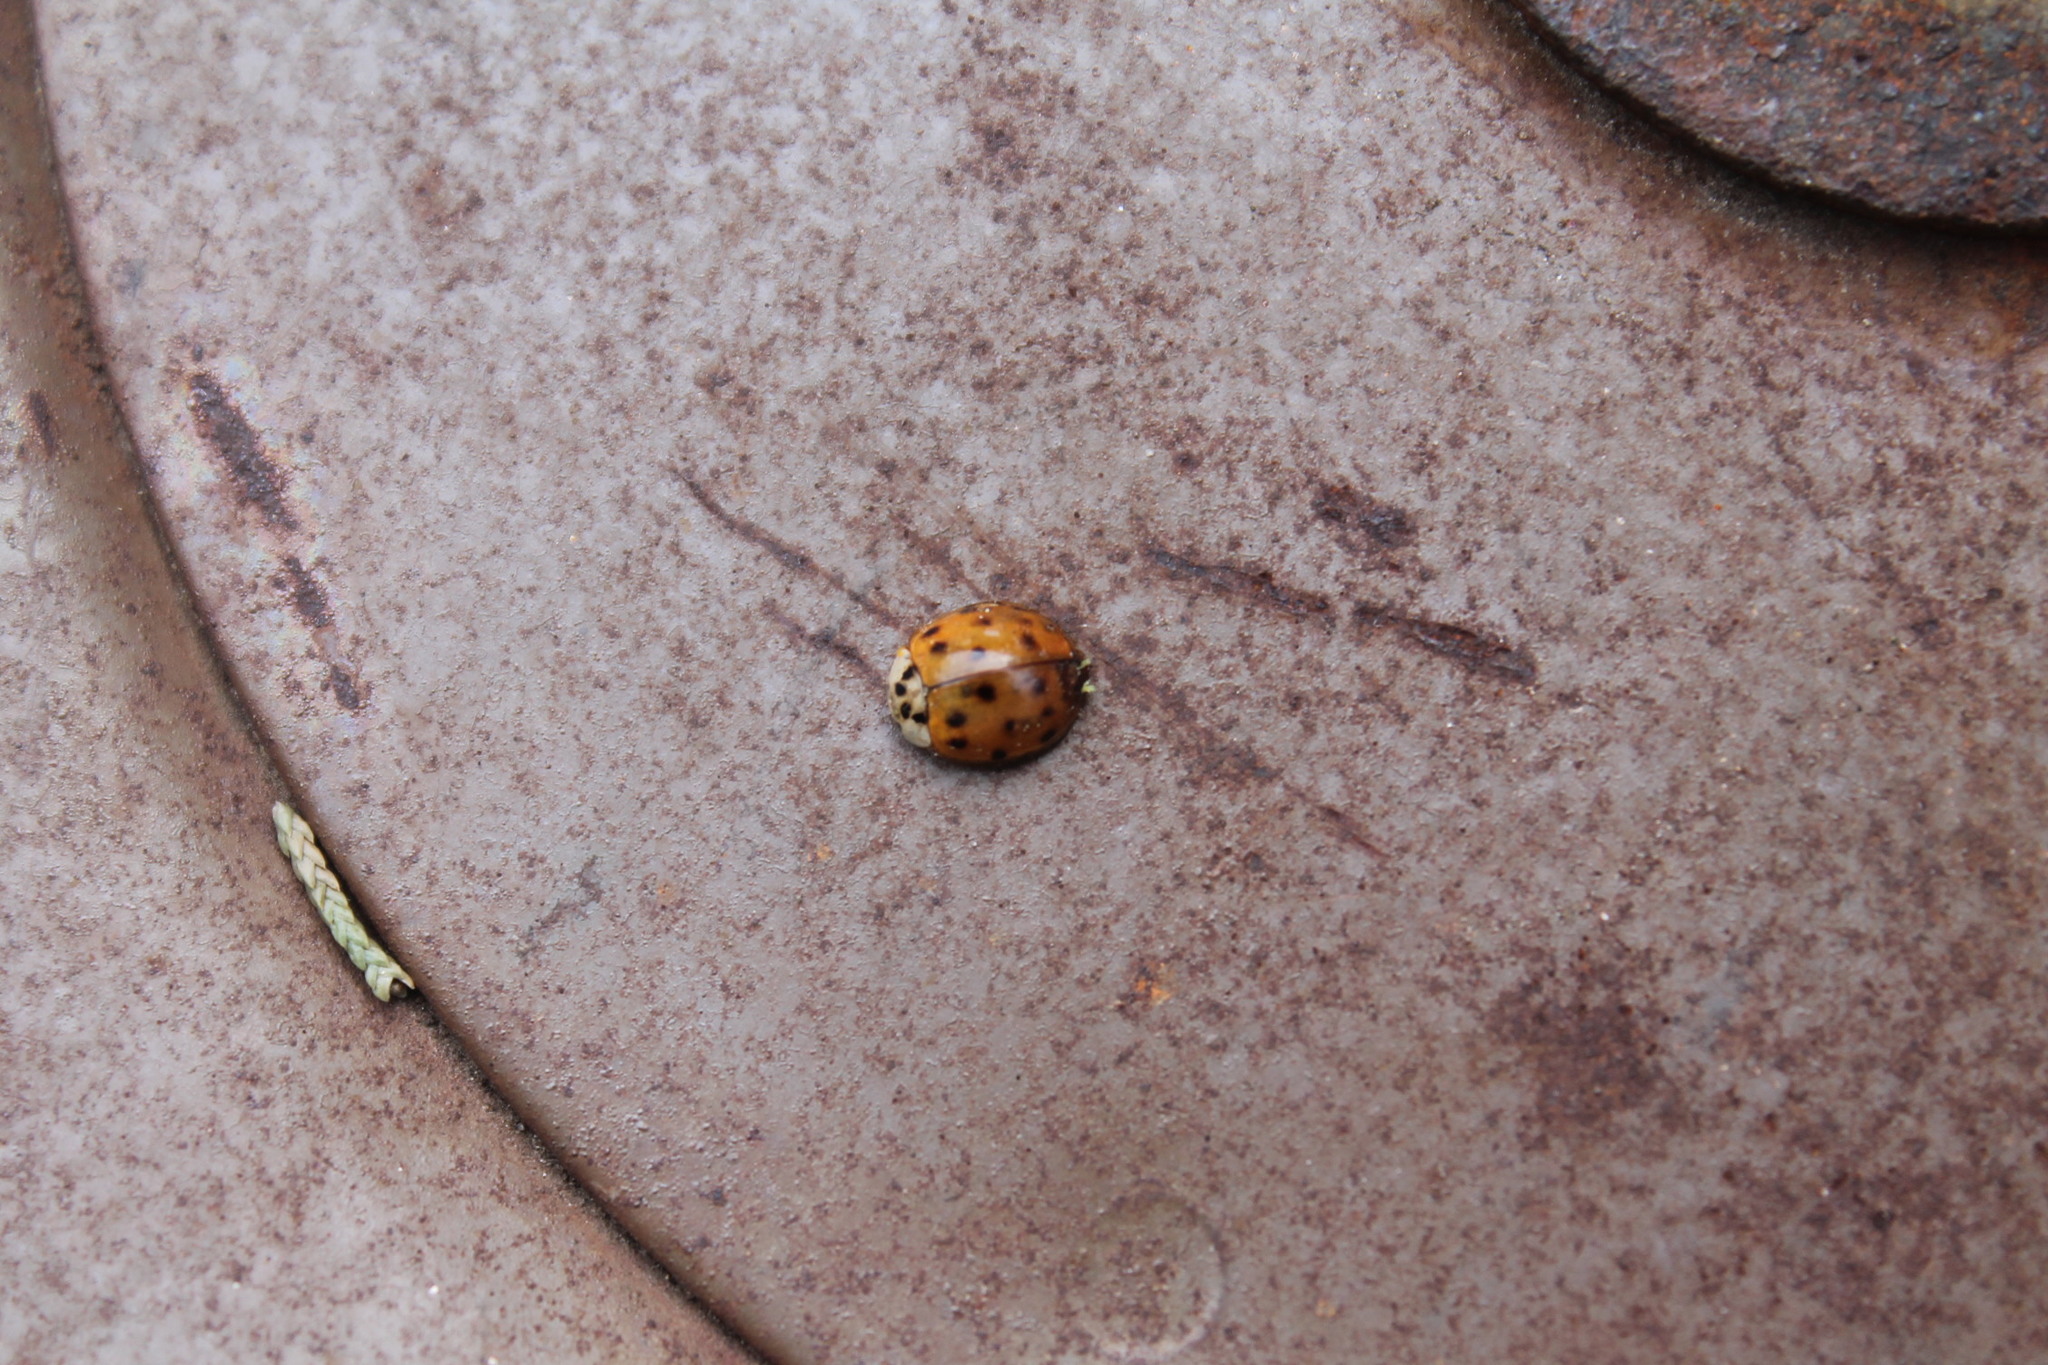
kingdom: Animalia
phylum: Arthropoda
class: Insecta
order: Coleoptera
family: Coccinellidae
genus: Harmonia
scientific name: Harmonia axyridis
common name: Harlequin ladybird
